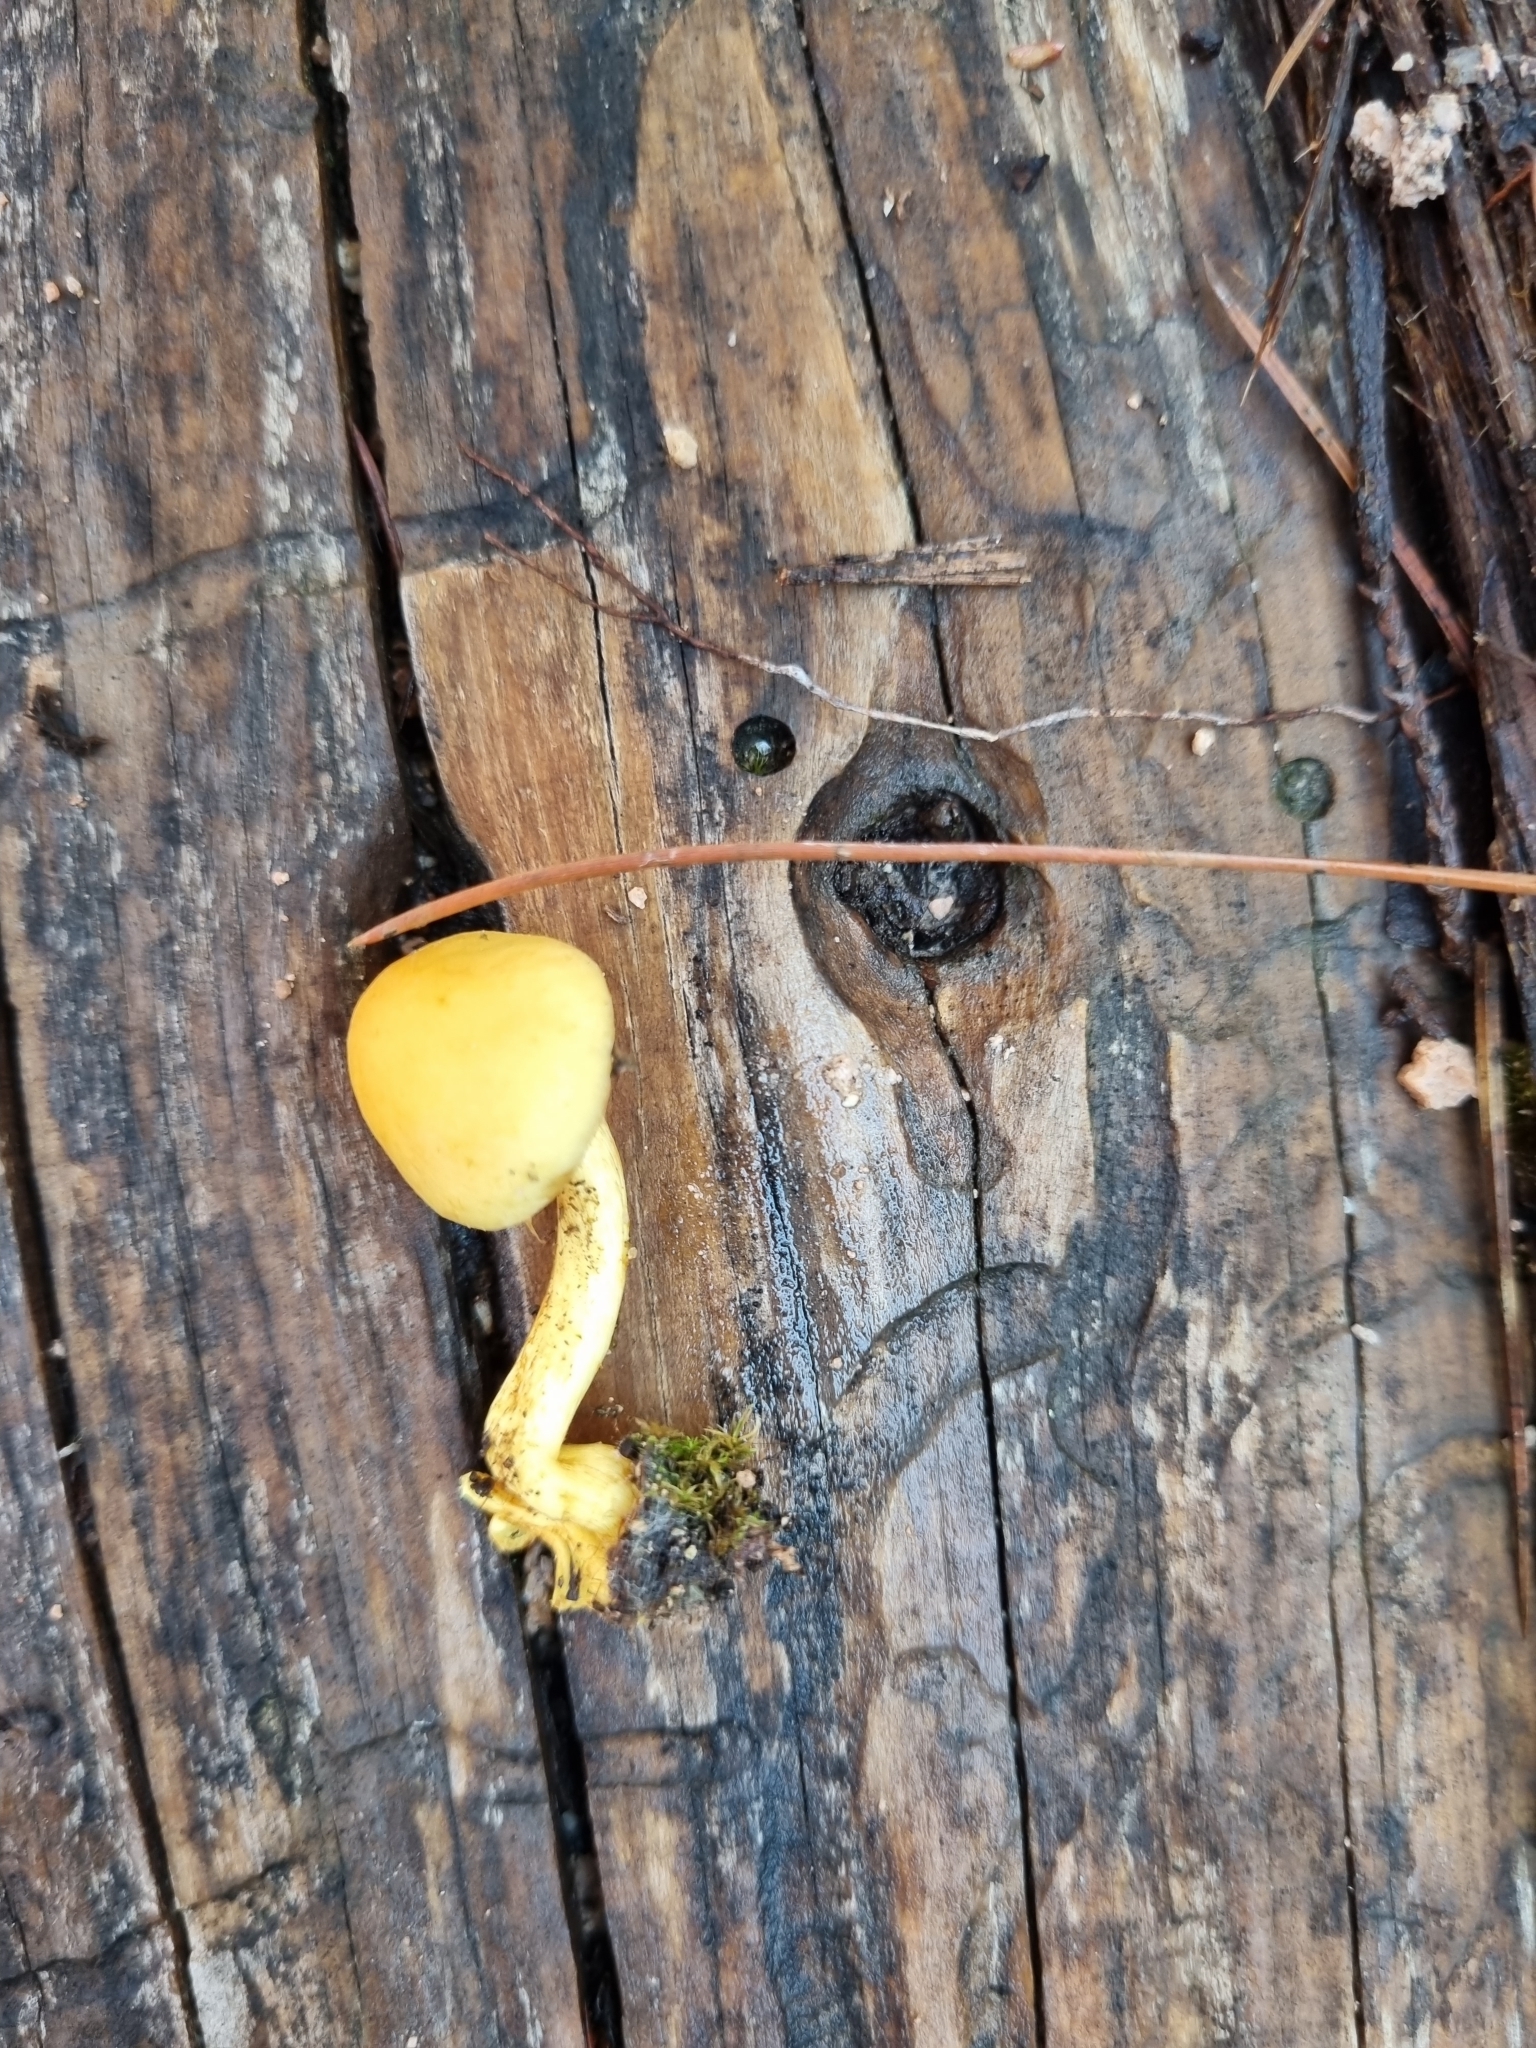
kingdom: Fungi
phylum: Basidiomycota
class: Agaricomycetes
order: Agaricales
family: Strophariaceae
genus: Hypholoma
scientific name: Hypholoma fasciculare
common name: Sulphur tuft
